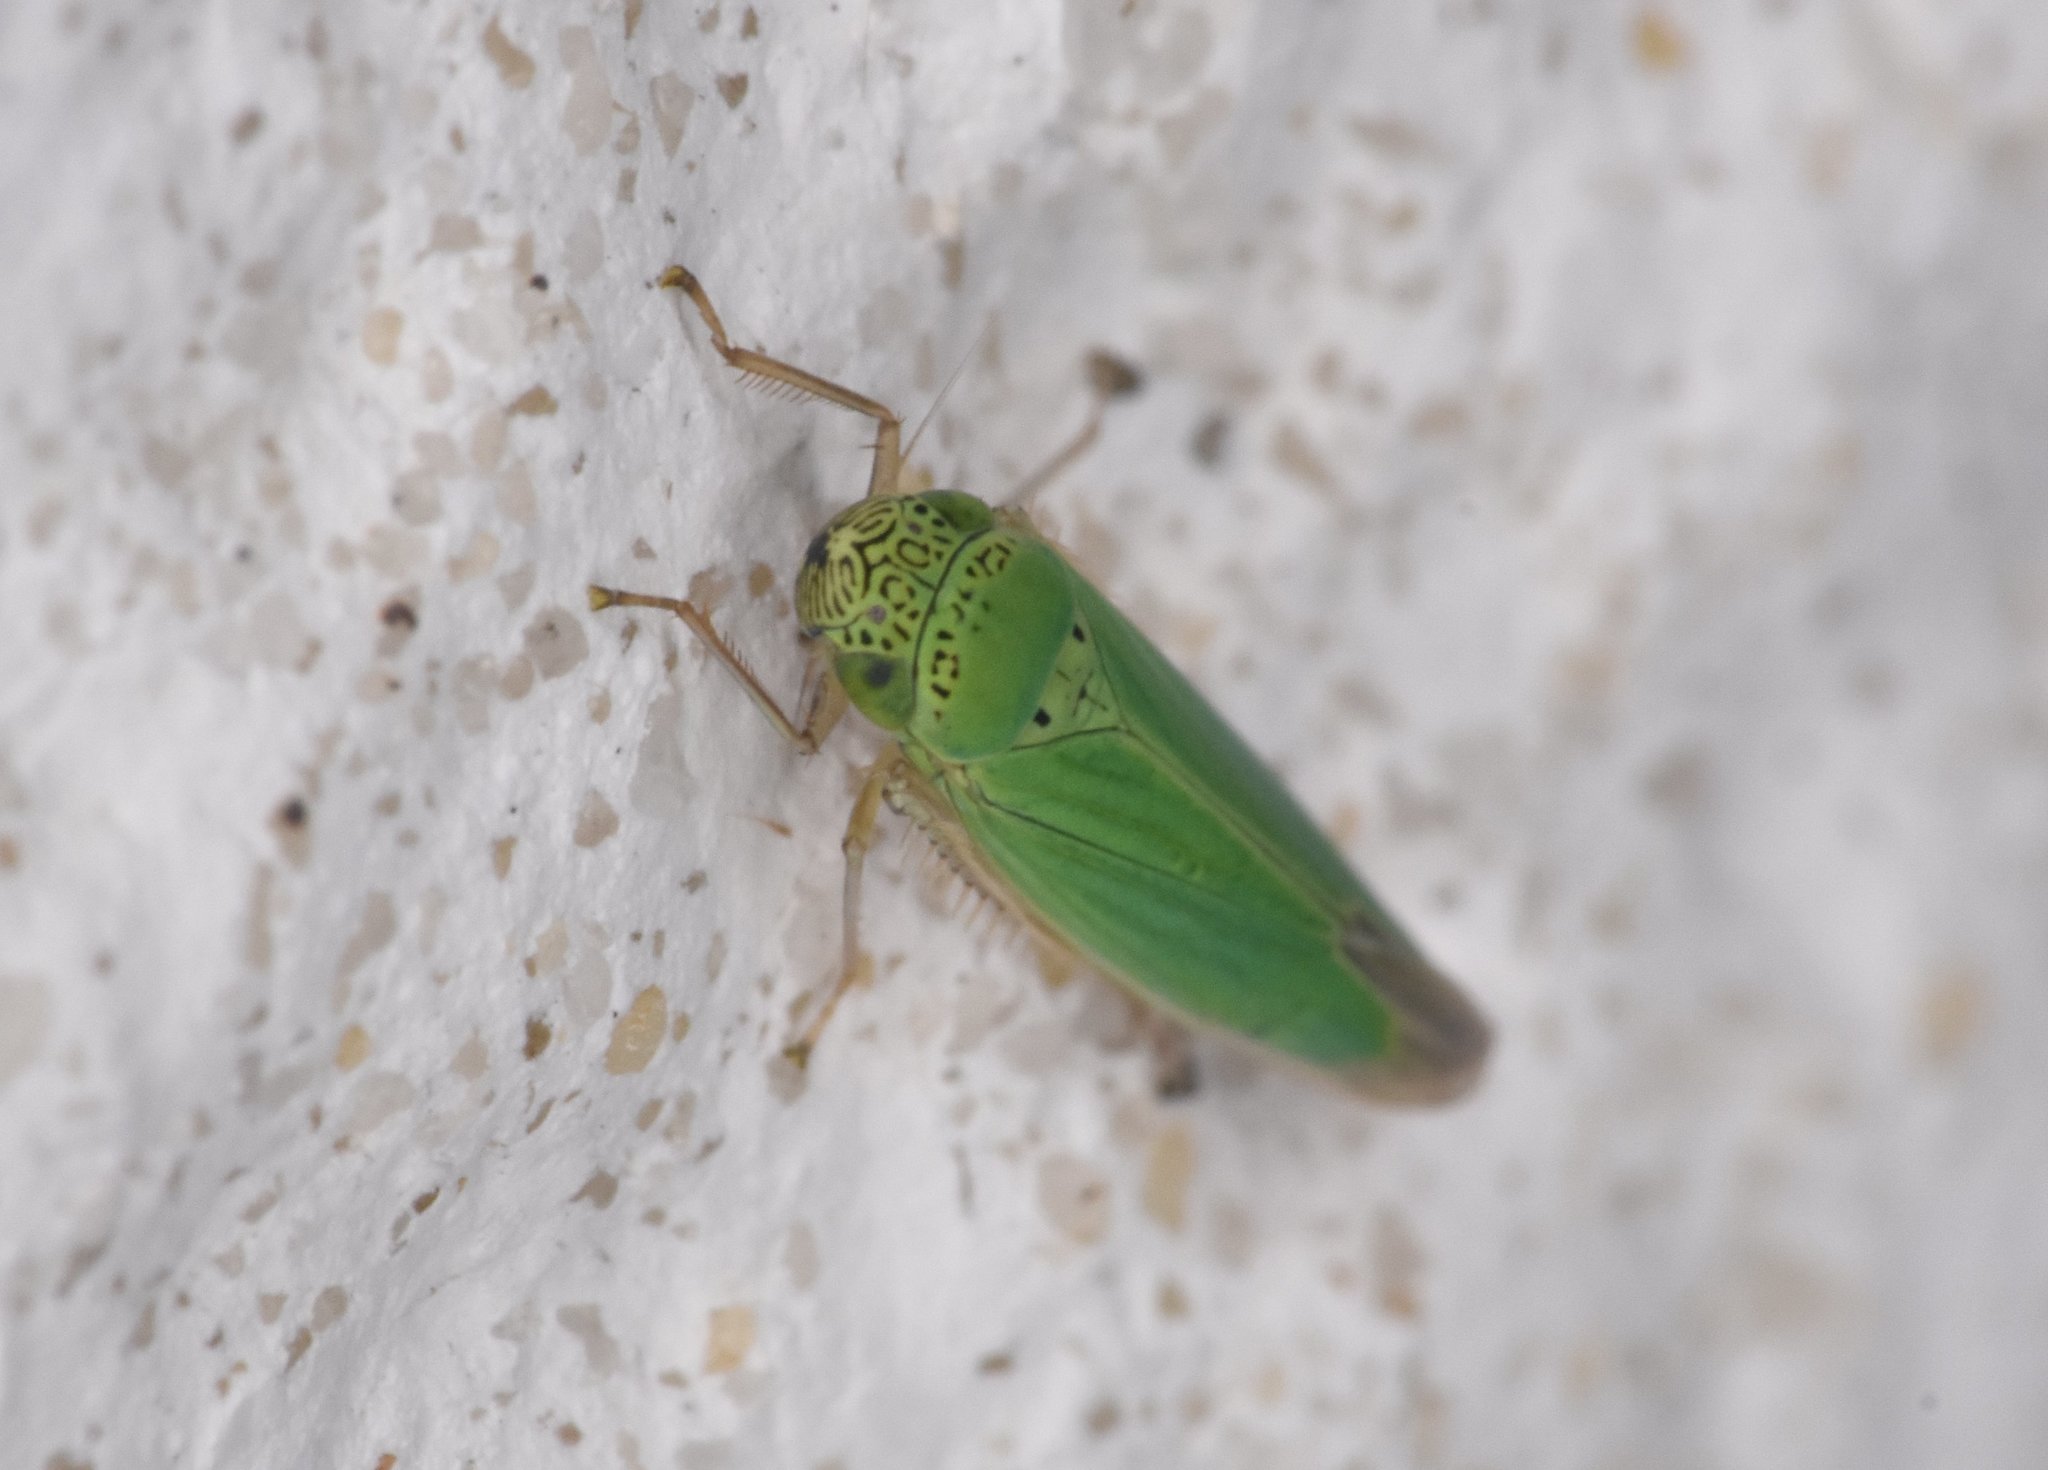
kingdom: Animalia
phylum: Arthropoda
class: Insecta
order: Hemiptera
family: Cicadellidae
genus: Hortensia
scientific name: Hortensia similis
